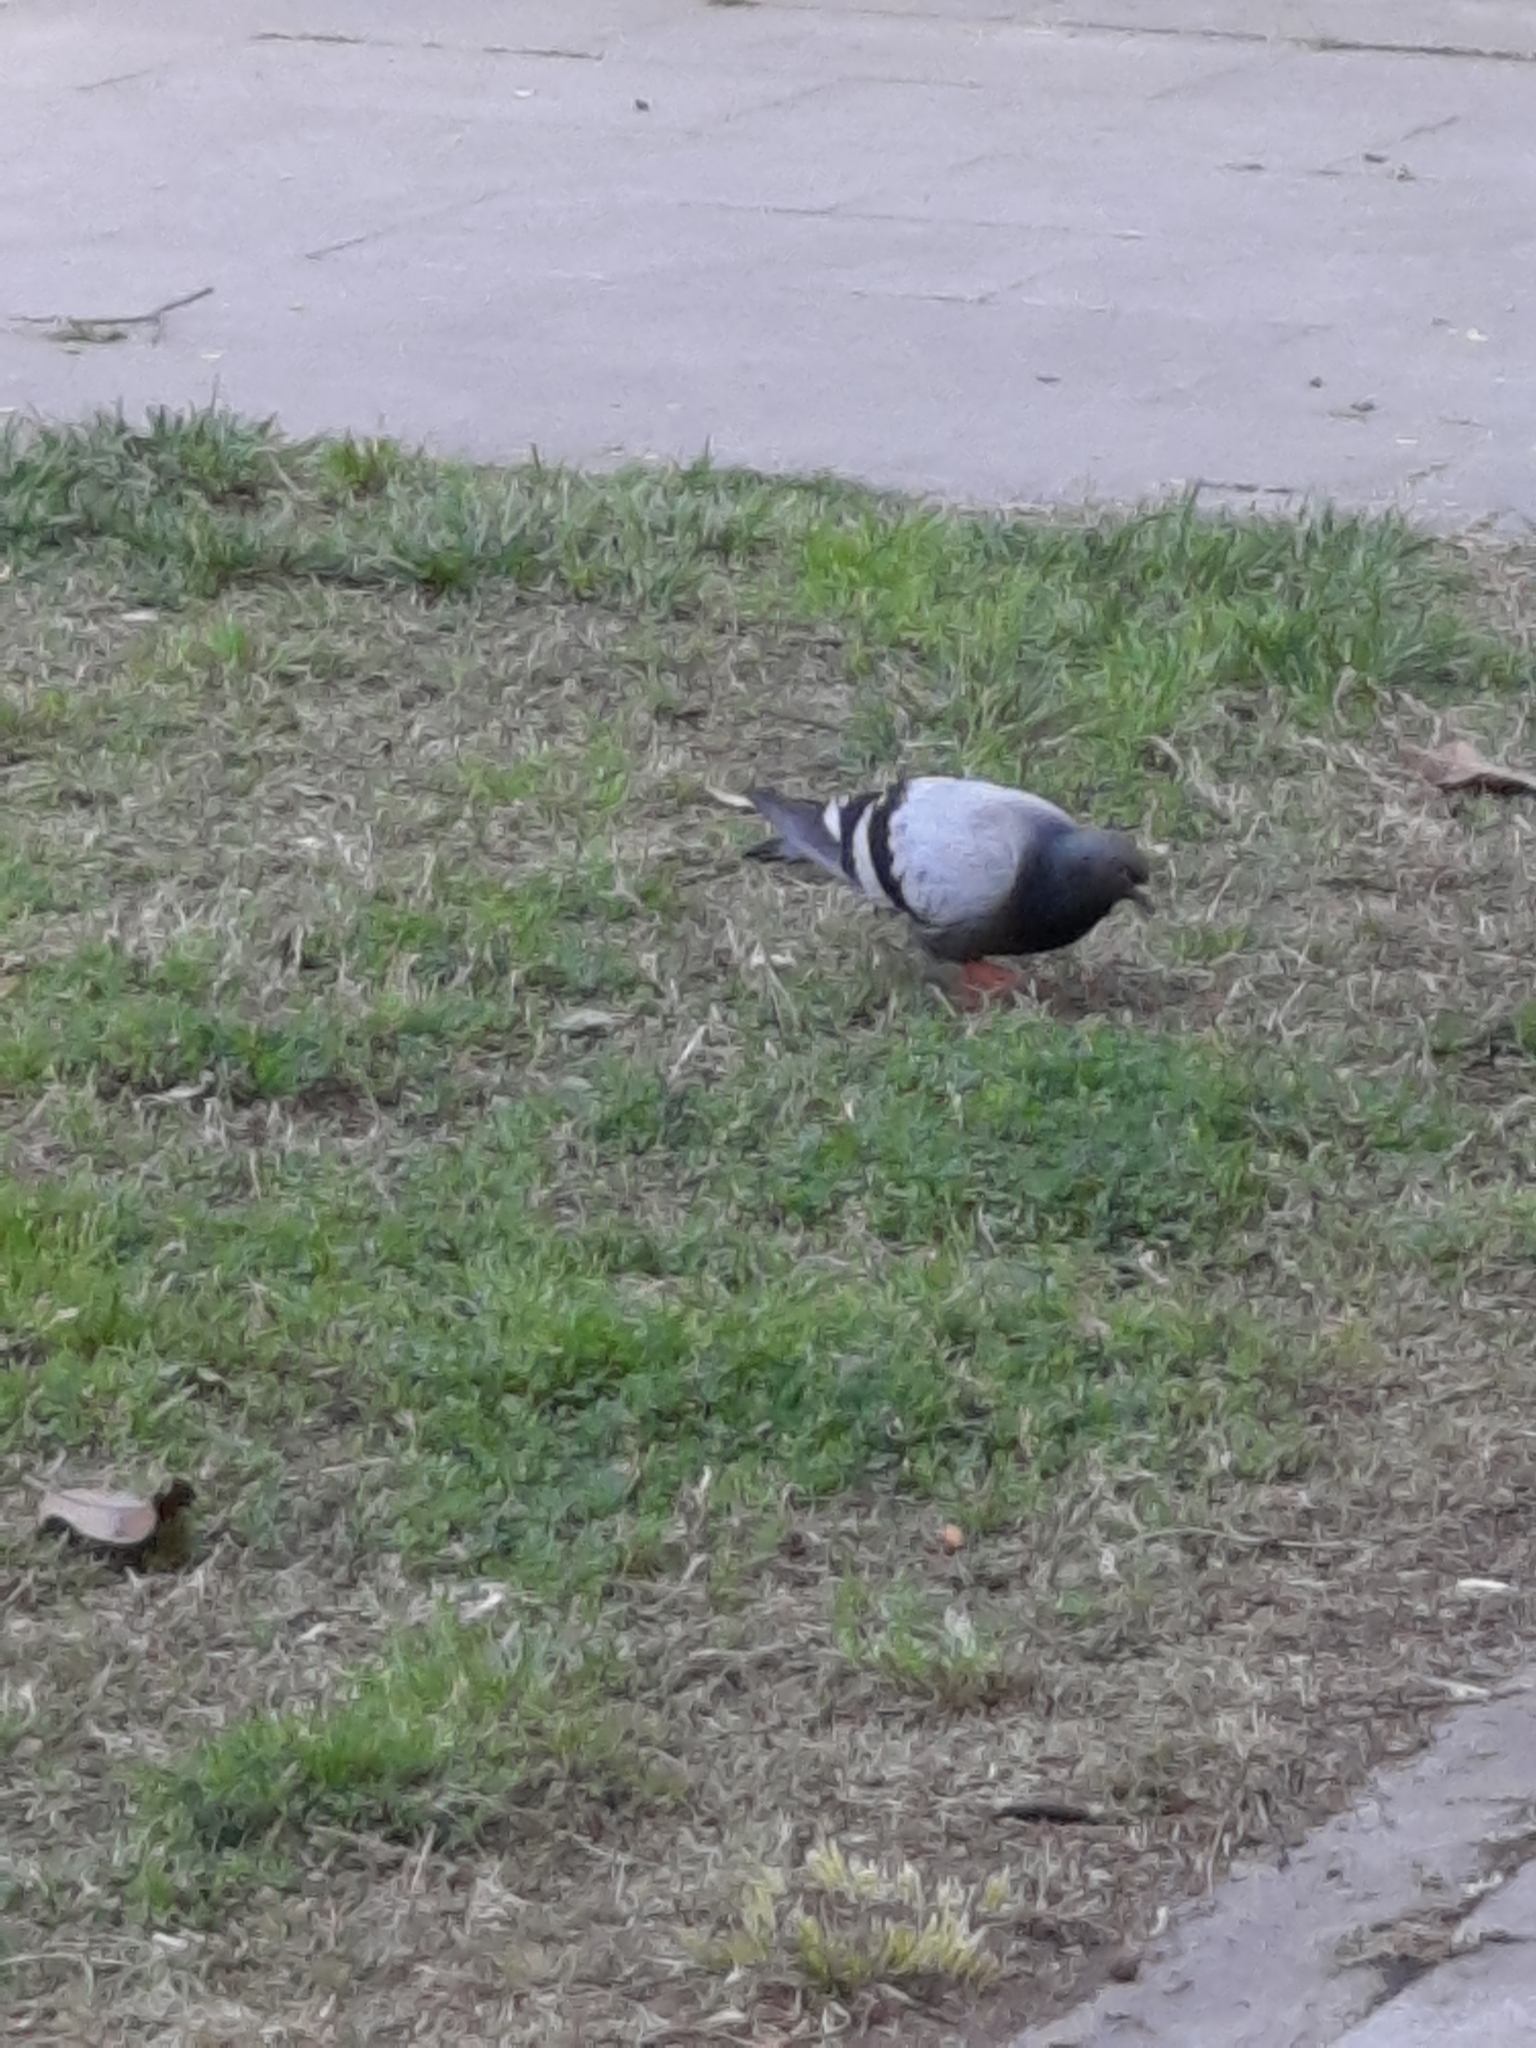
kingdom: Animalia
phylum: Chordata
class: Aves
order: Columbiformes
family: Columbidae
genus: Columba
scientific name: Columba livia
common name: Rock pigeon
